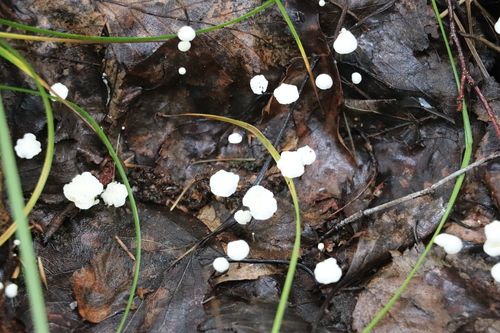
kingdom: Fungi
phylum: Basidiomycota
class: Agaricomycetes
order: Agaricales
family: Marasmiaceae
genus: Marasmius
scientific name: Marasmius epiphyllus
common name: Leaf parachute
